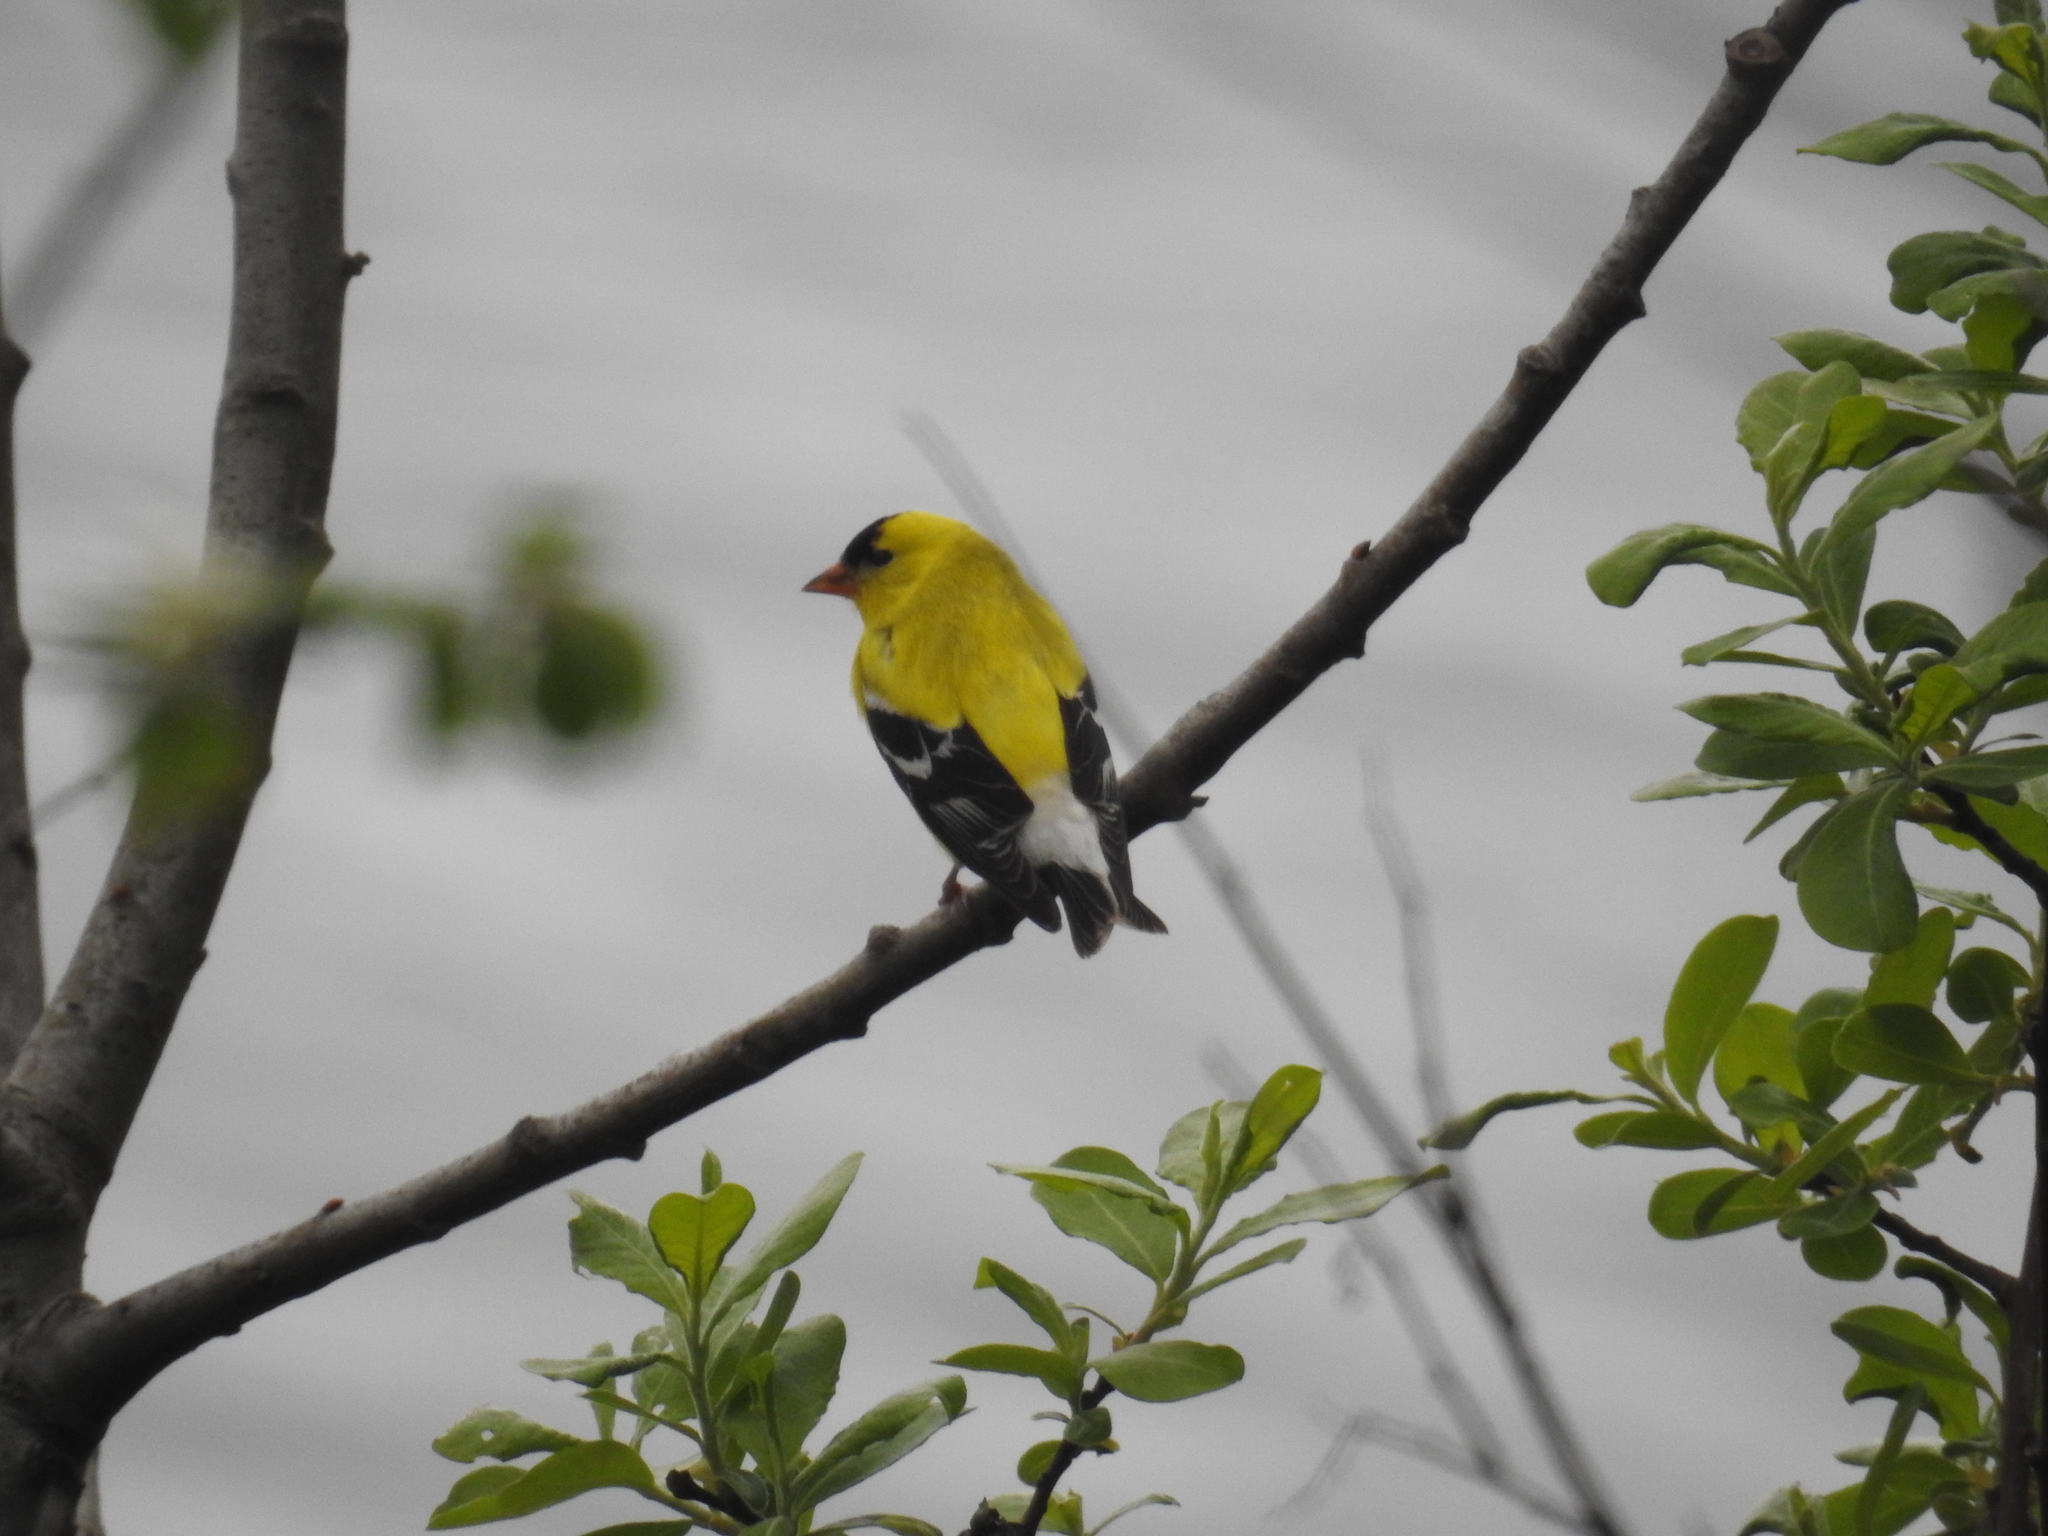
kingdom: Animalia
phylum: Chordata
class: Aves
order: Passeriformes
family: Fringillidae
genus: Spinus
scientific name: Spinus tristis
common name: American goldfinch
